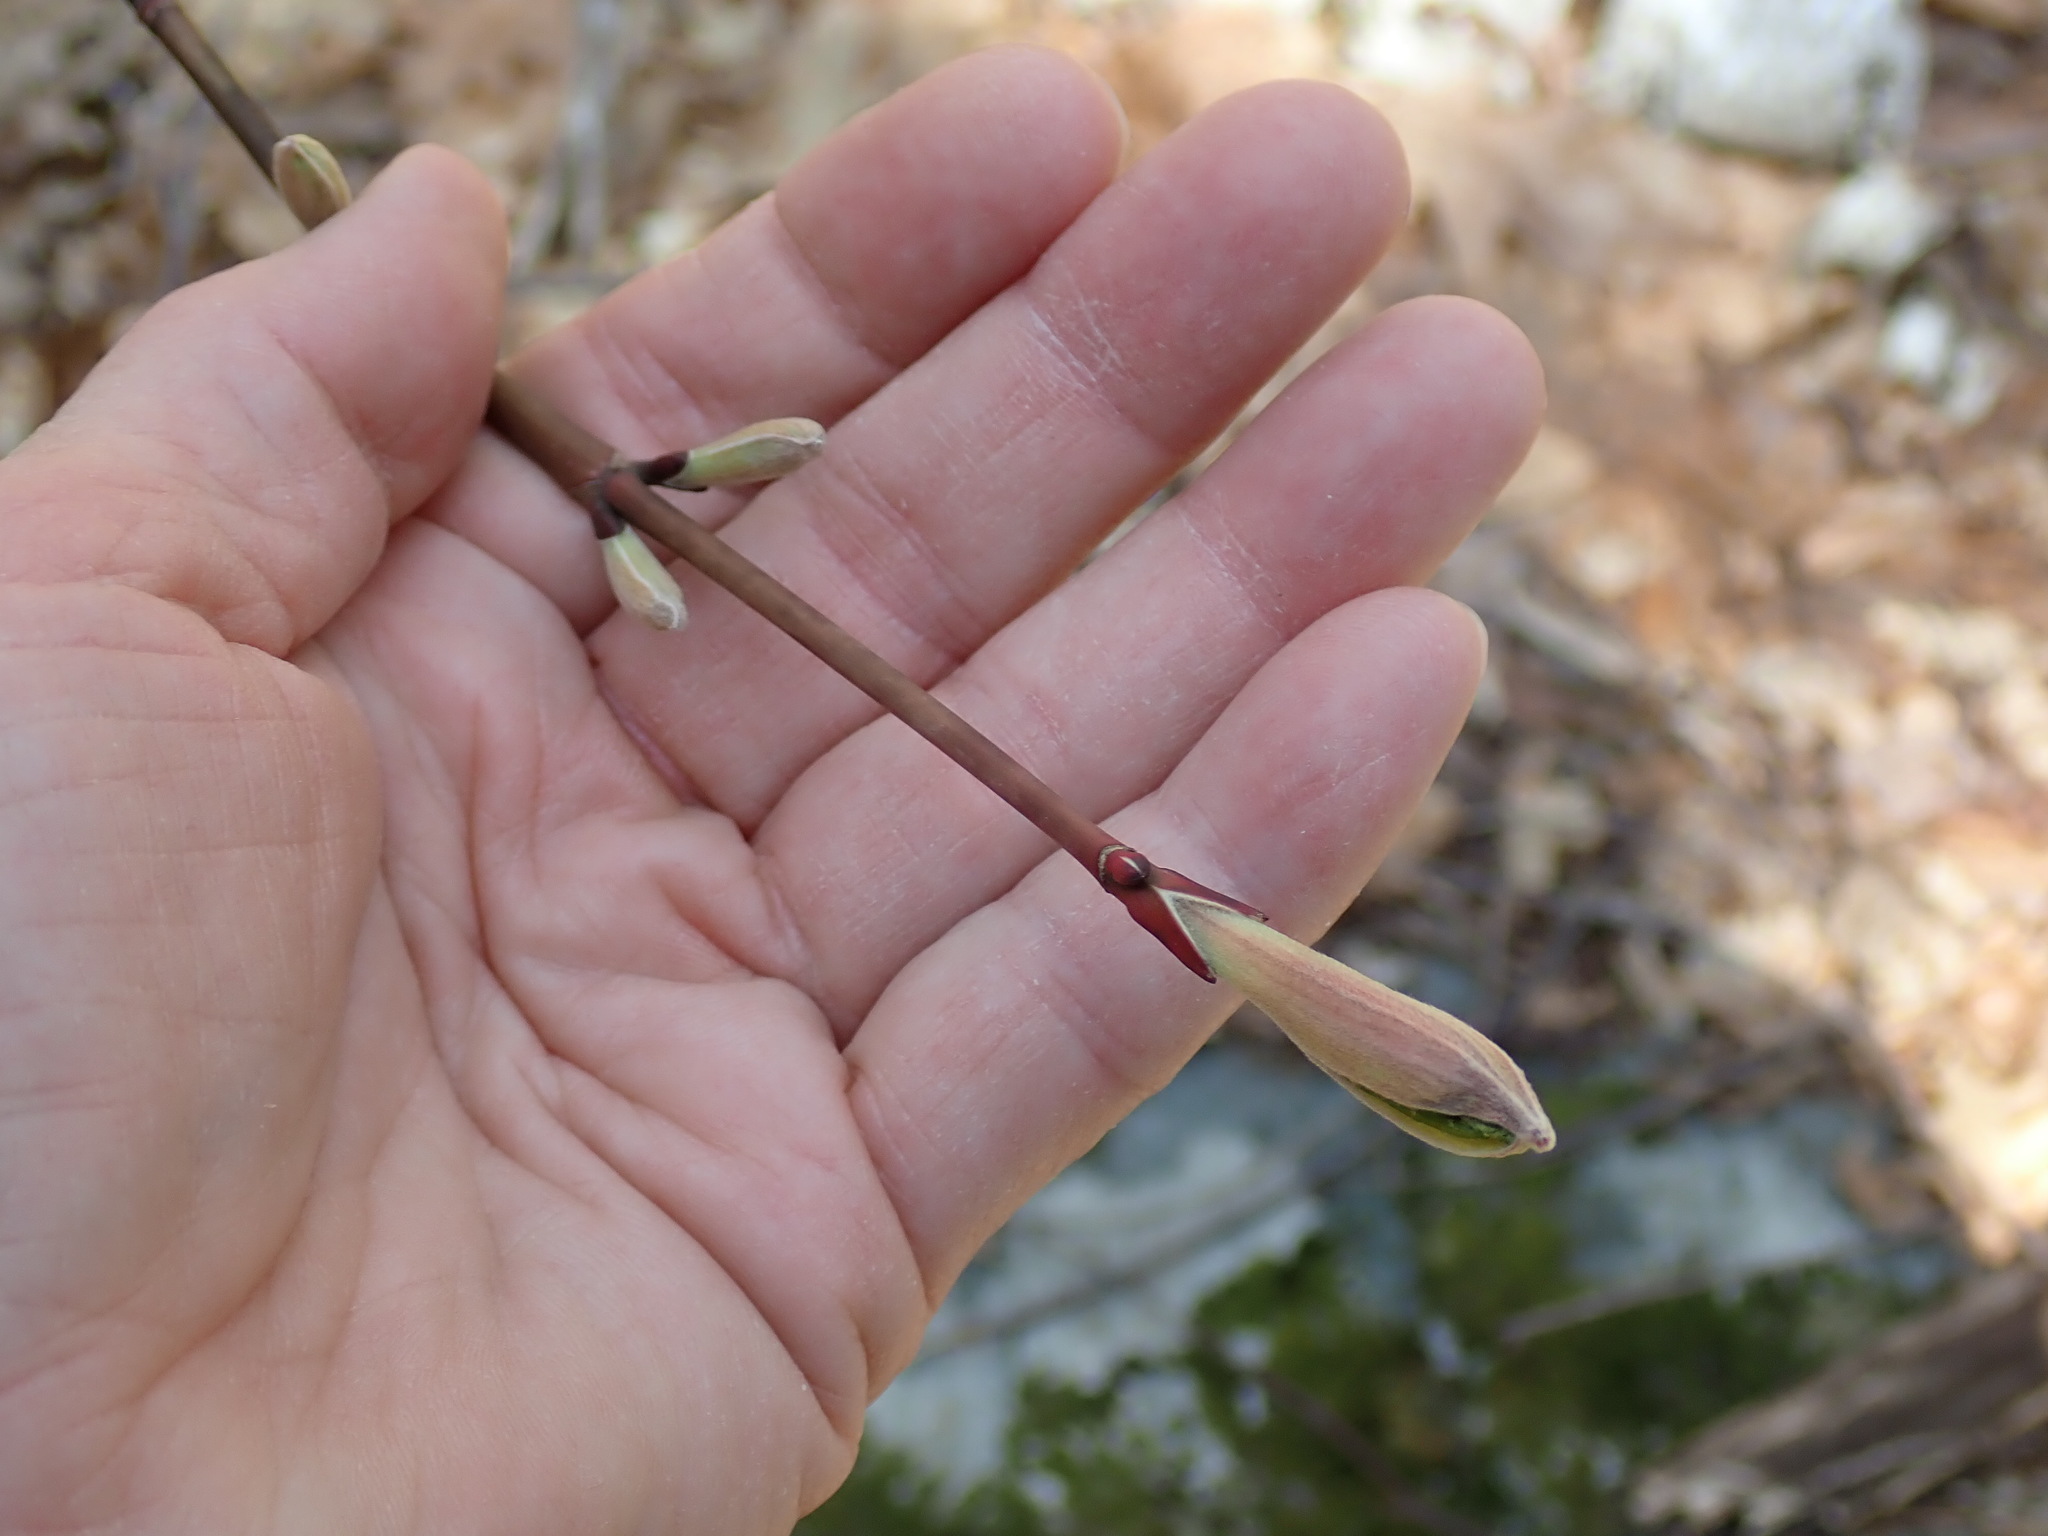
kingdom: Plantae
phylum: Tracheophyta
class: Magnoliopsida
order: Sapindales
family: Sapindaceae
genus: Acer
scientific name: Acer pensylvanicum
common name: Moosewood
